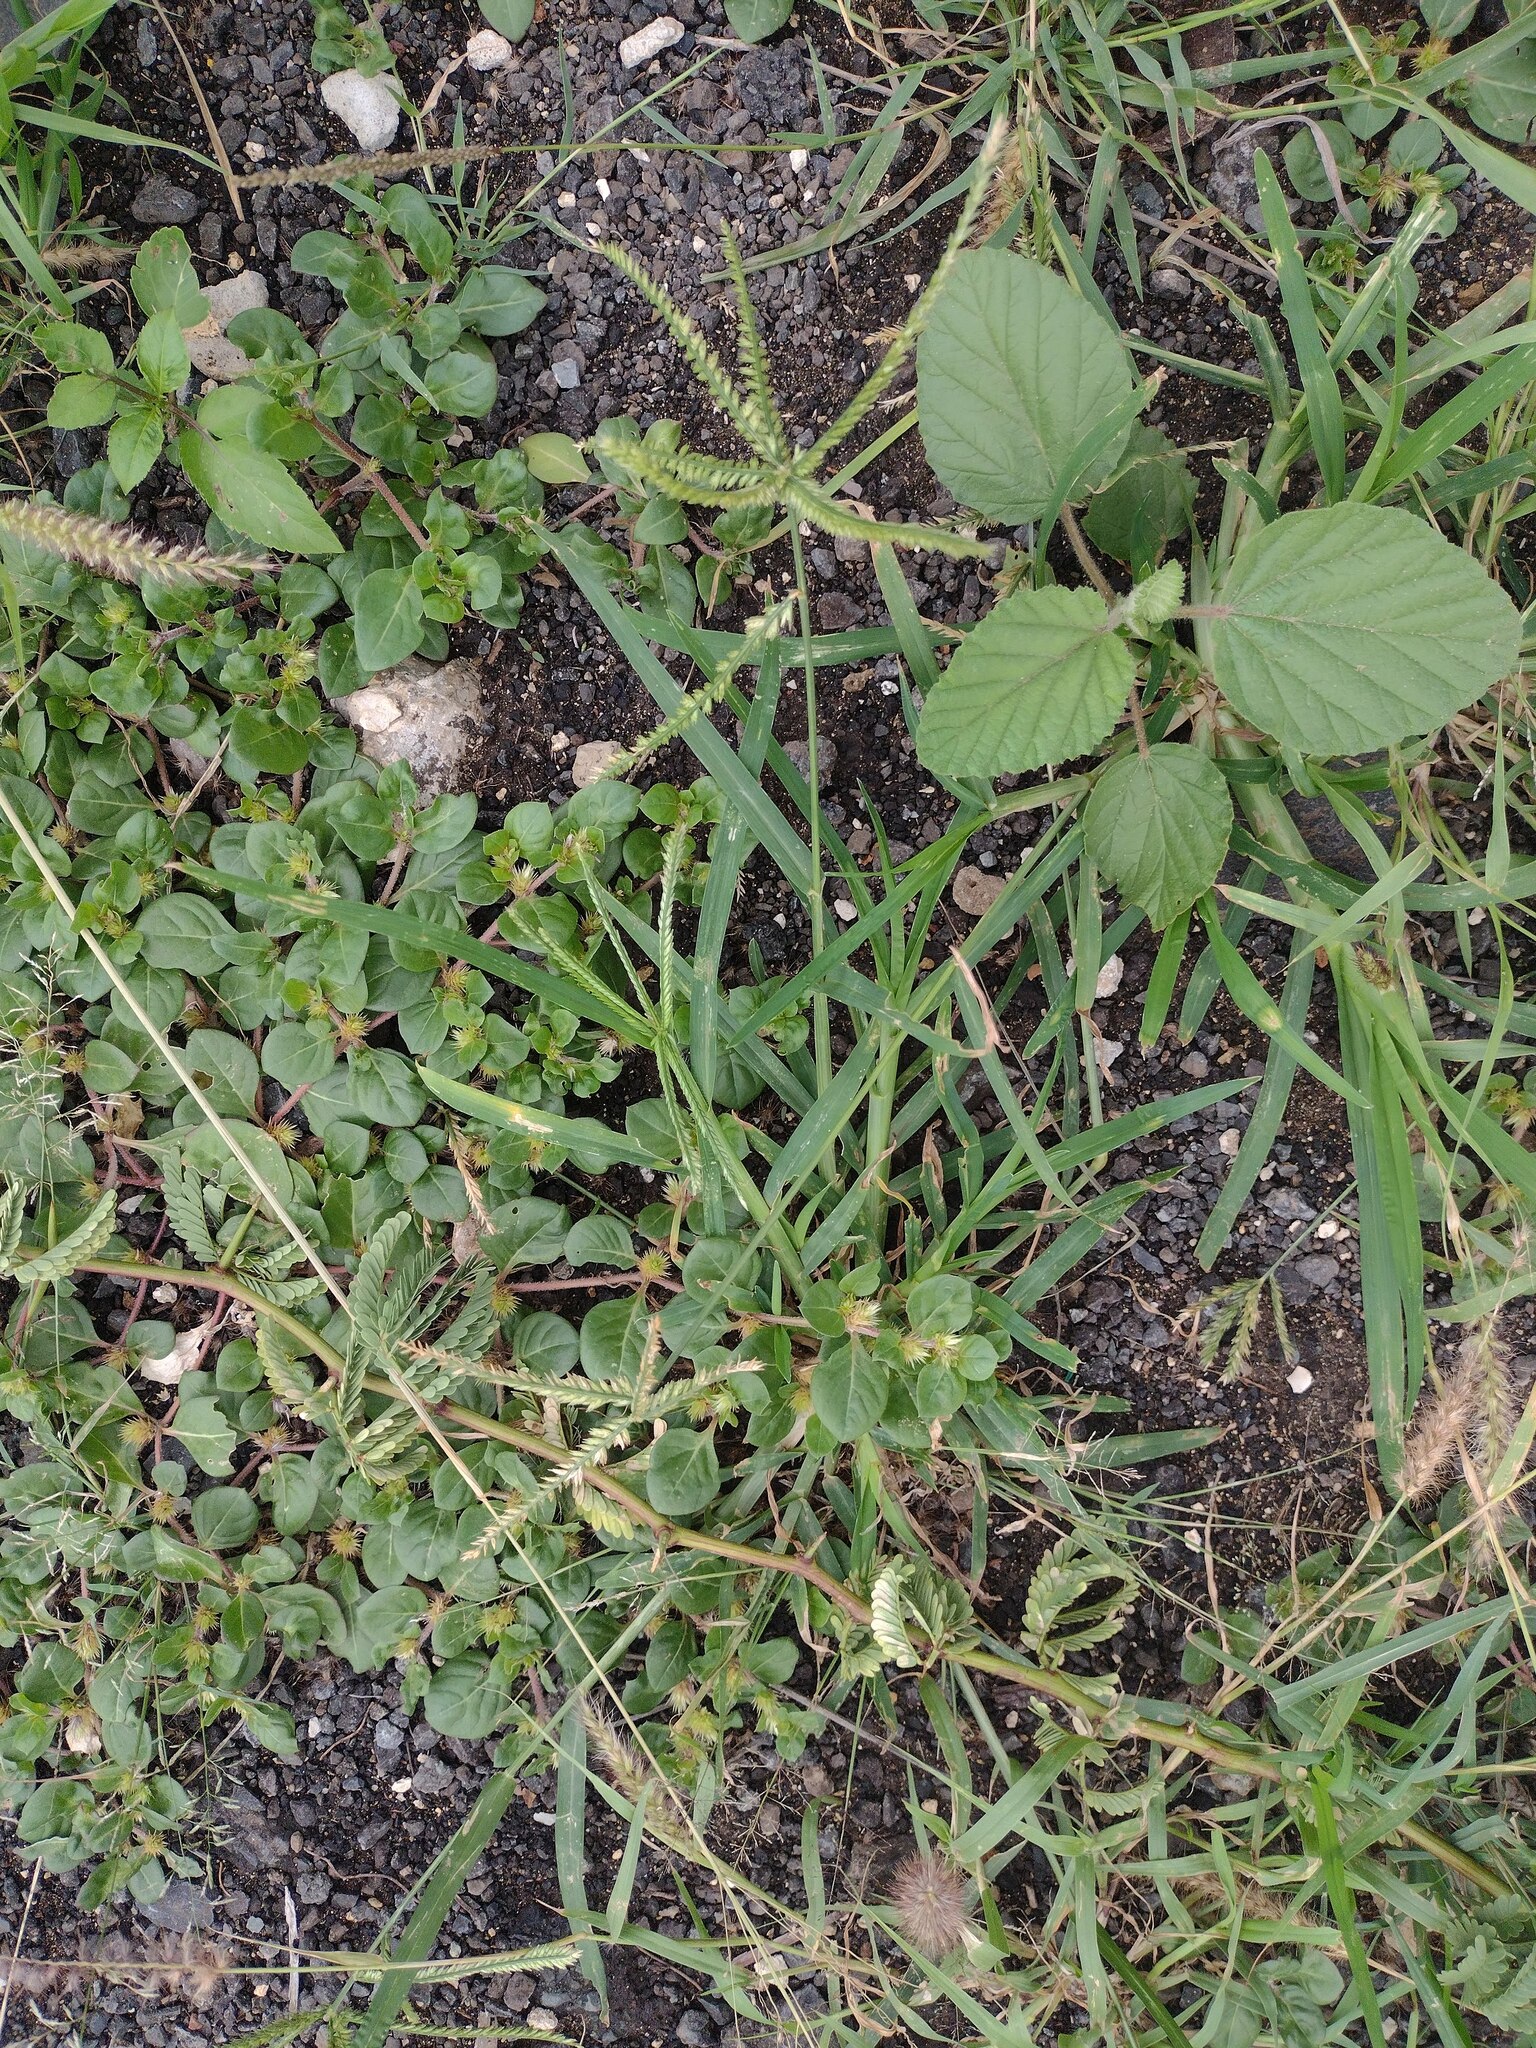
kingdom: Plantae
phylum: Tracheophyta
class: Magnoliopsida
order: Malvales
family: Malvaceae
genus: Waltheria
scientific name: Waltheria indica
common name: Leather-coat
